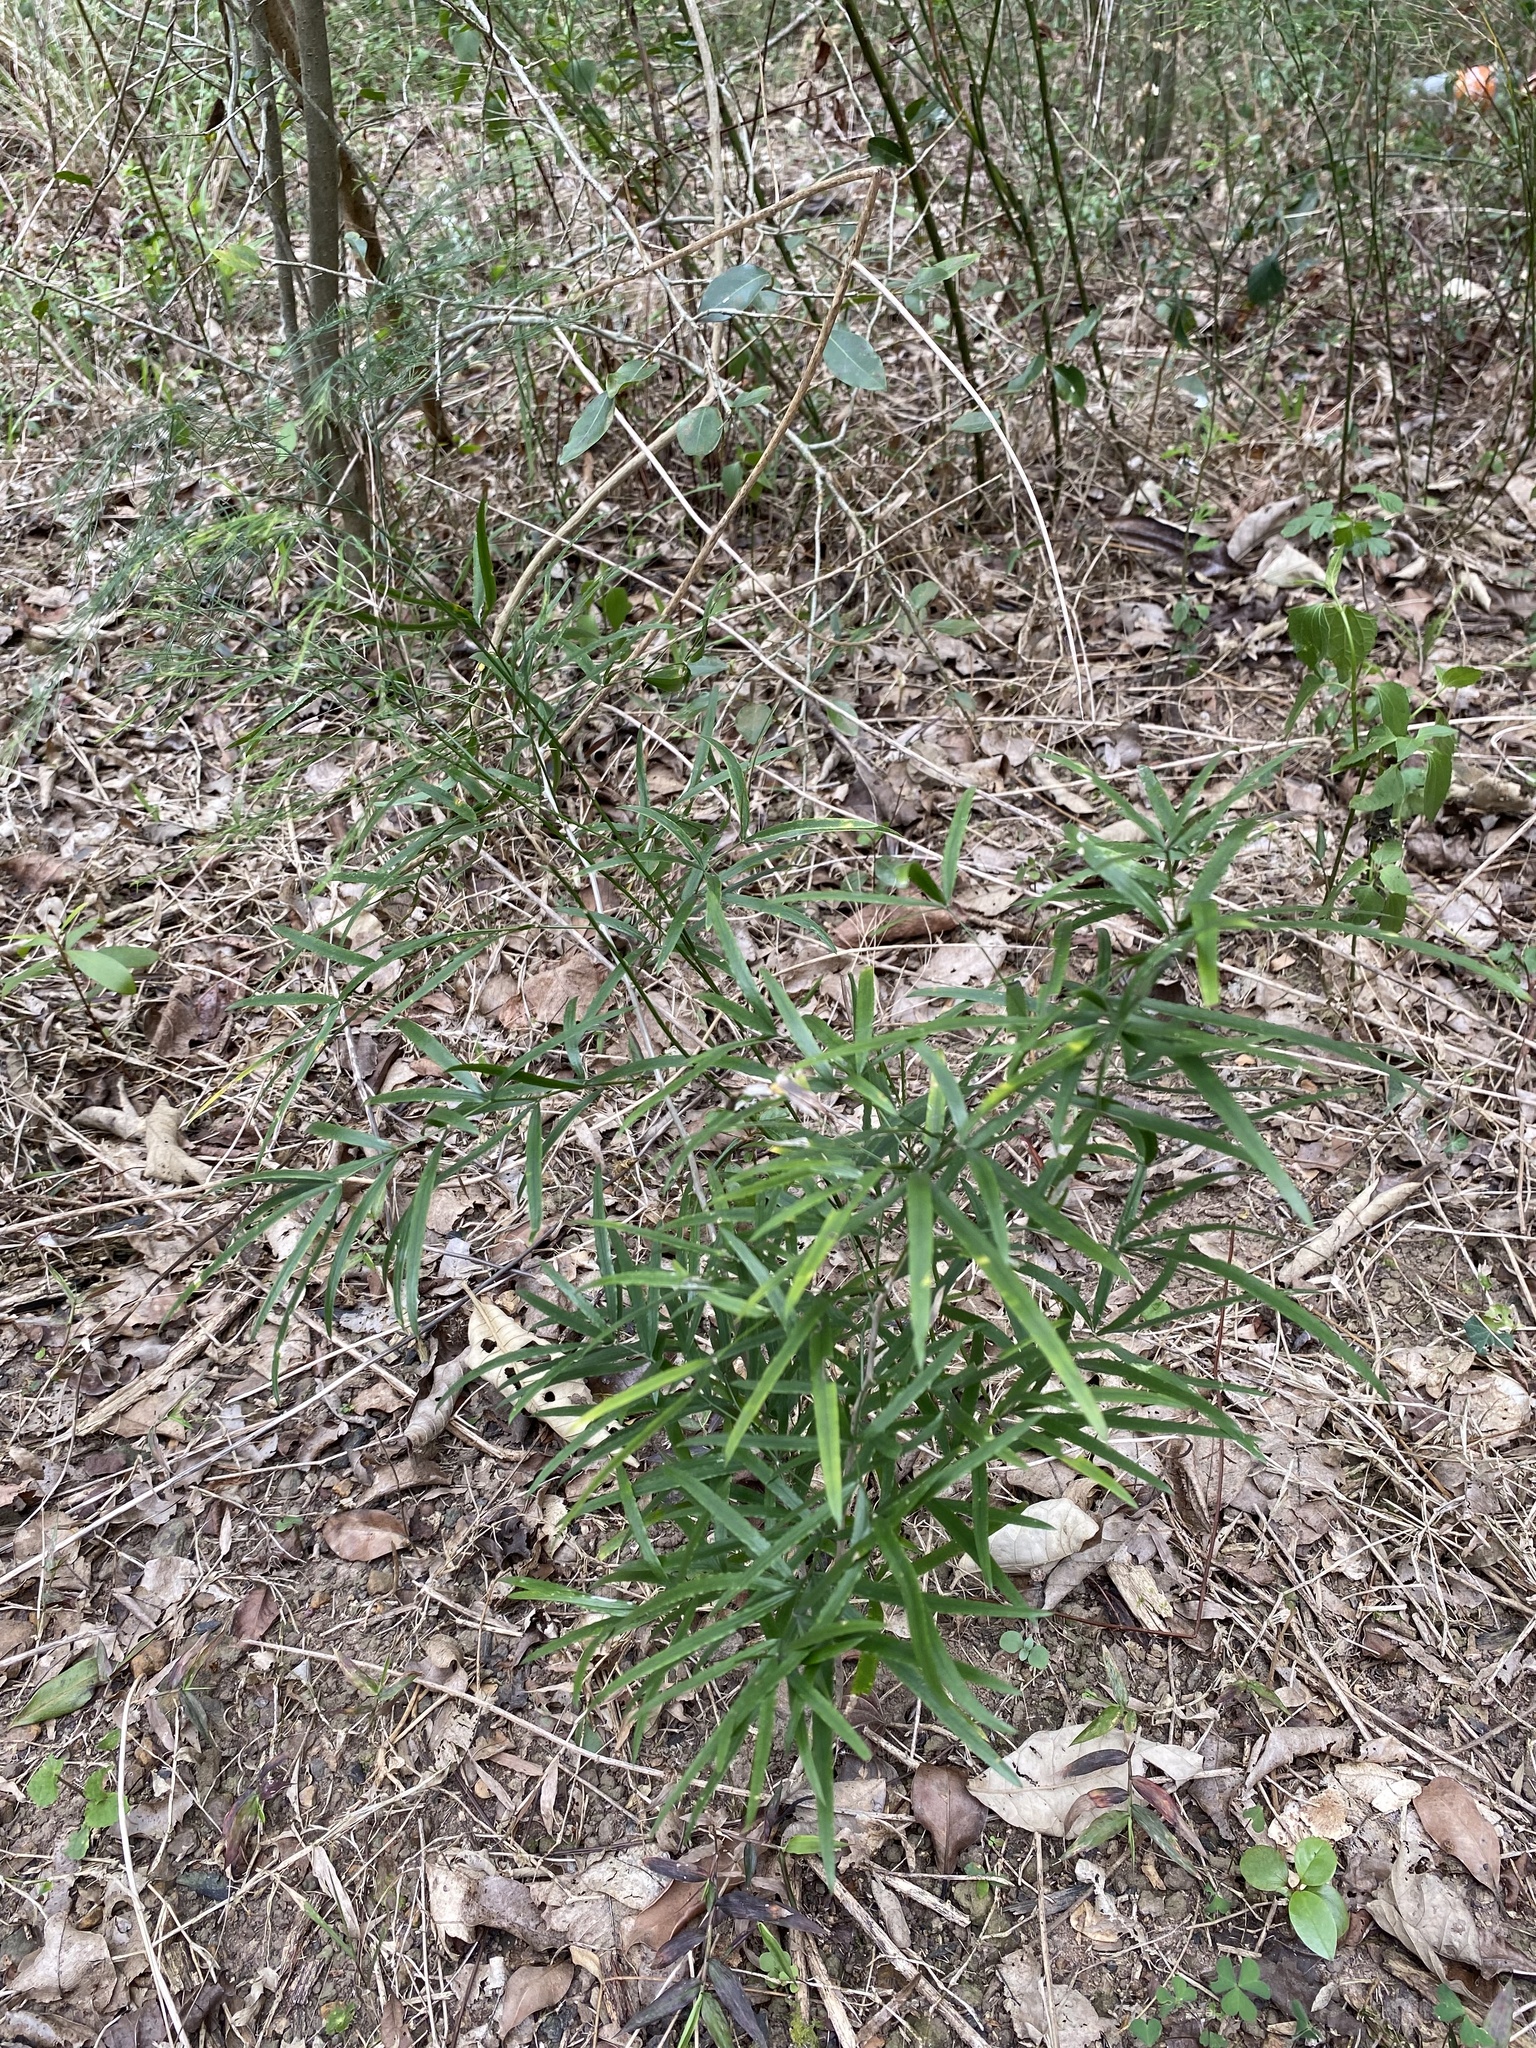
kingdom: Plantae
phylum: Tracheophyta
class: Liliopsida
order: Asparagales
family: Asparagaceae
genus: Asparagus
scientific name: Asparagus falcatus
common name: Asparagus
